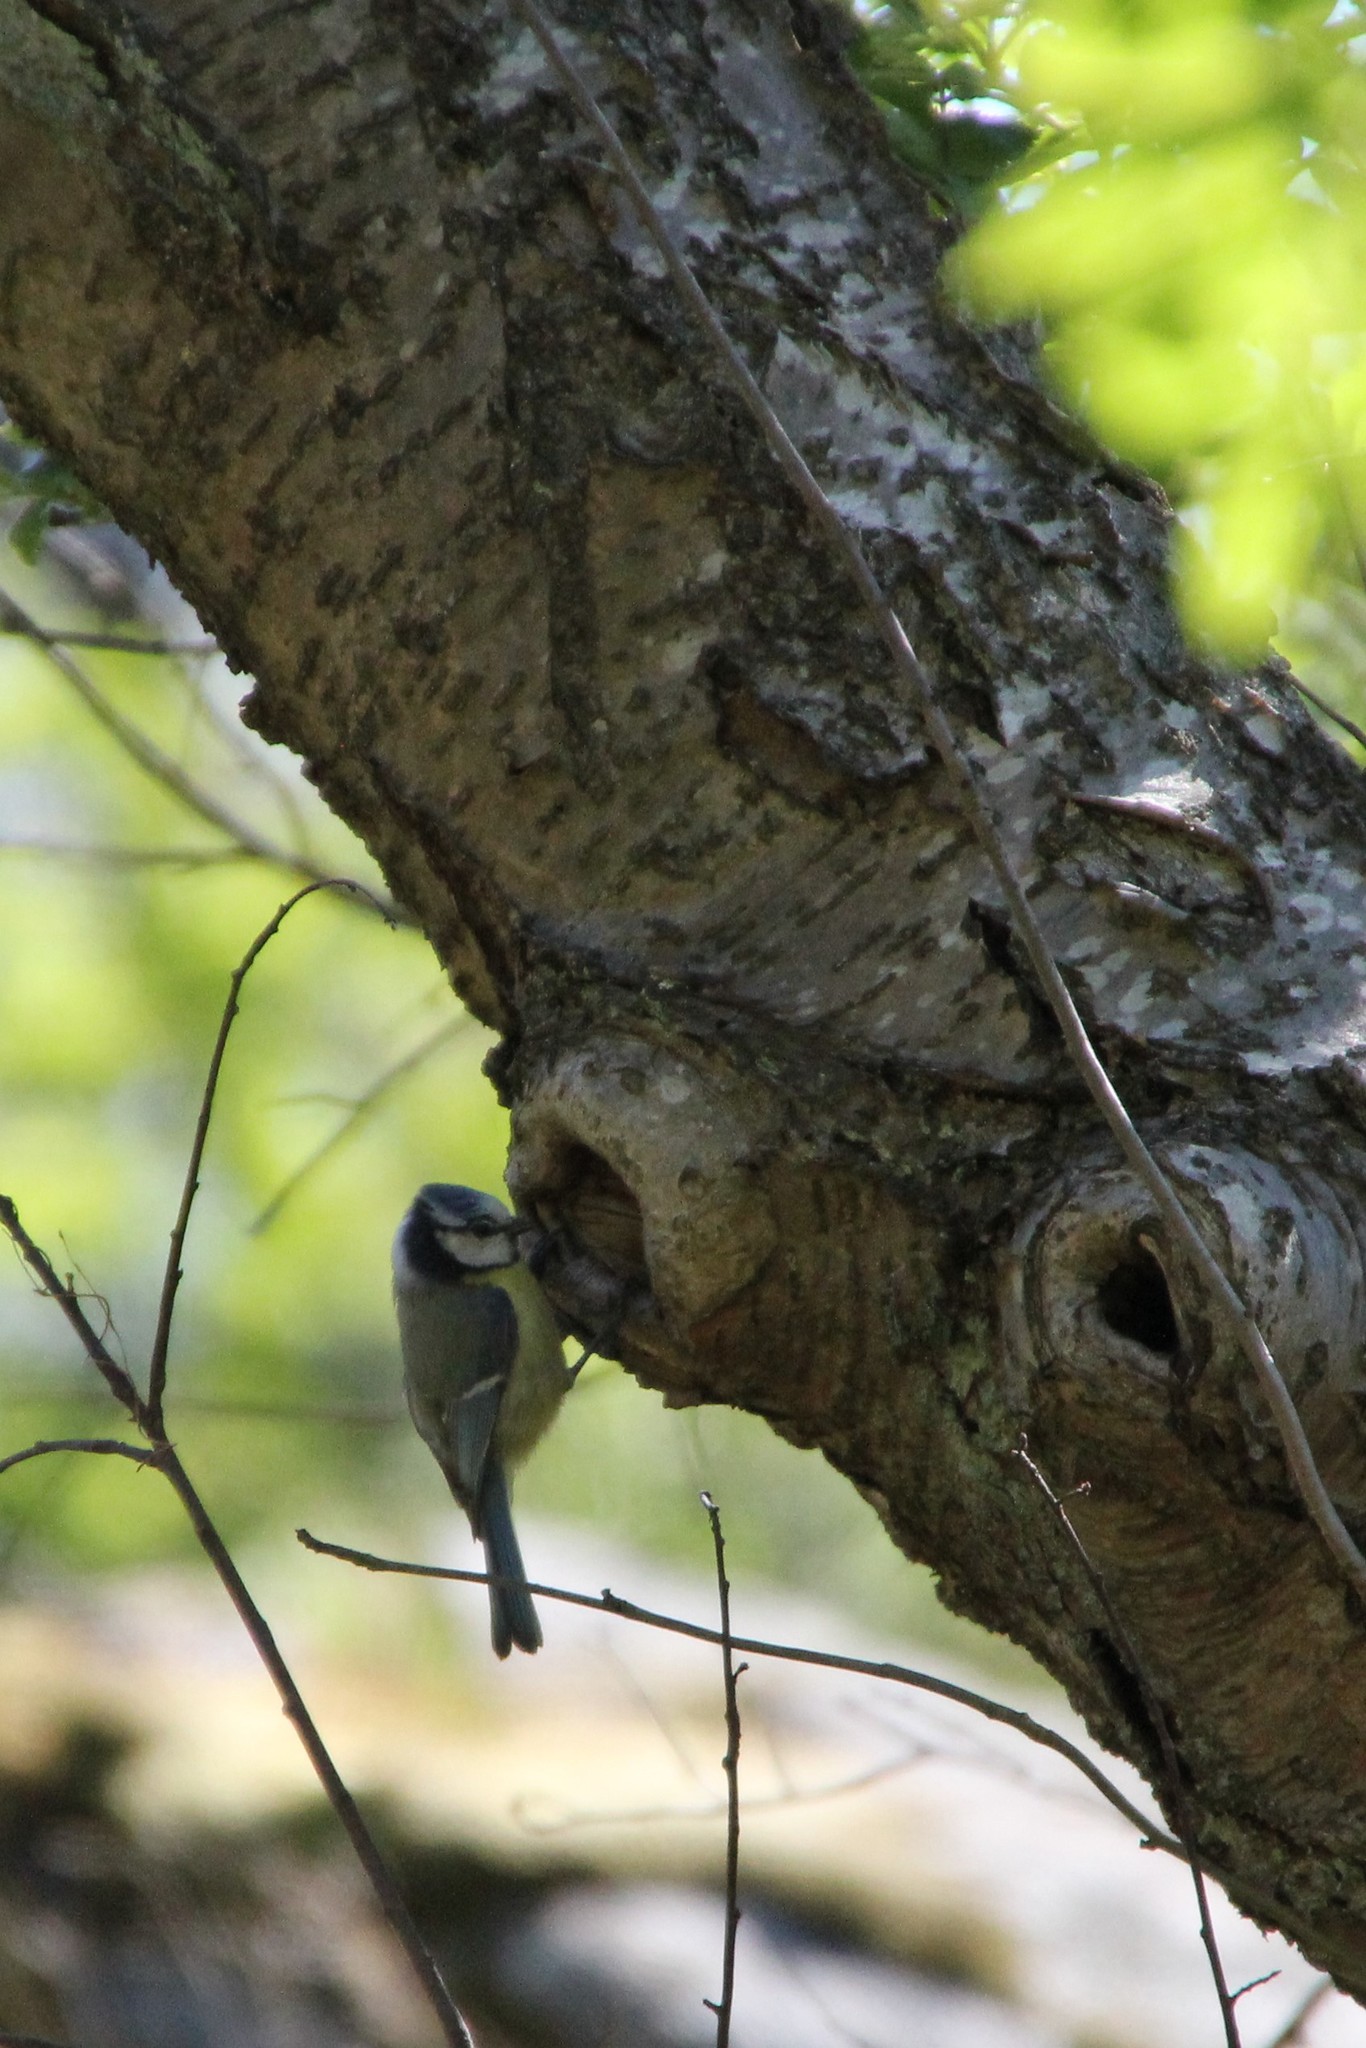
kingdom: Animalia
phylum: Chordata
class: Aves
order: Passeriformes
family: Paridae
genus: Cyanistes
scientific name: Cyanistes caeruleus
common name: Eurasian blue tit
